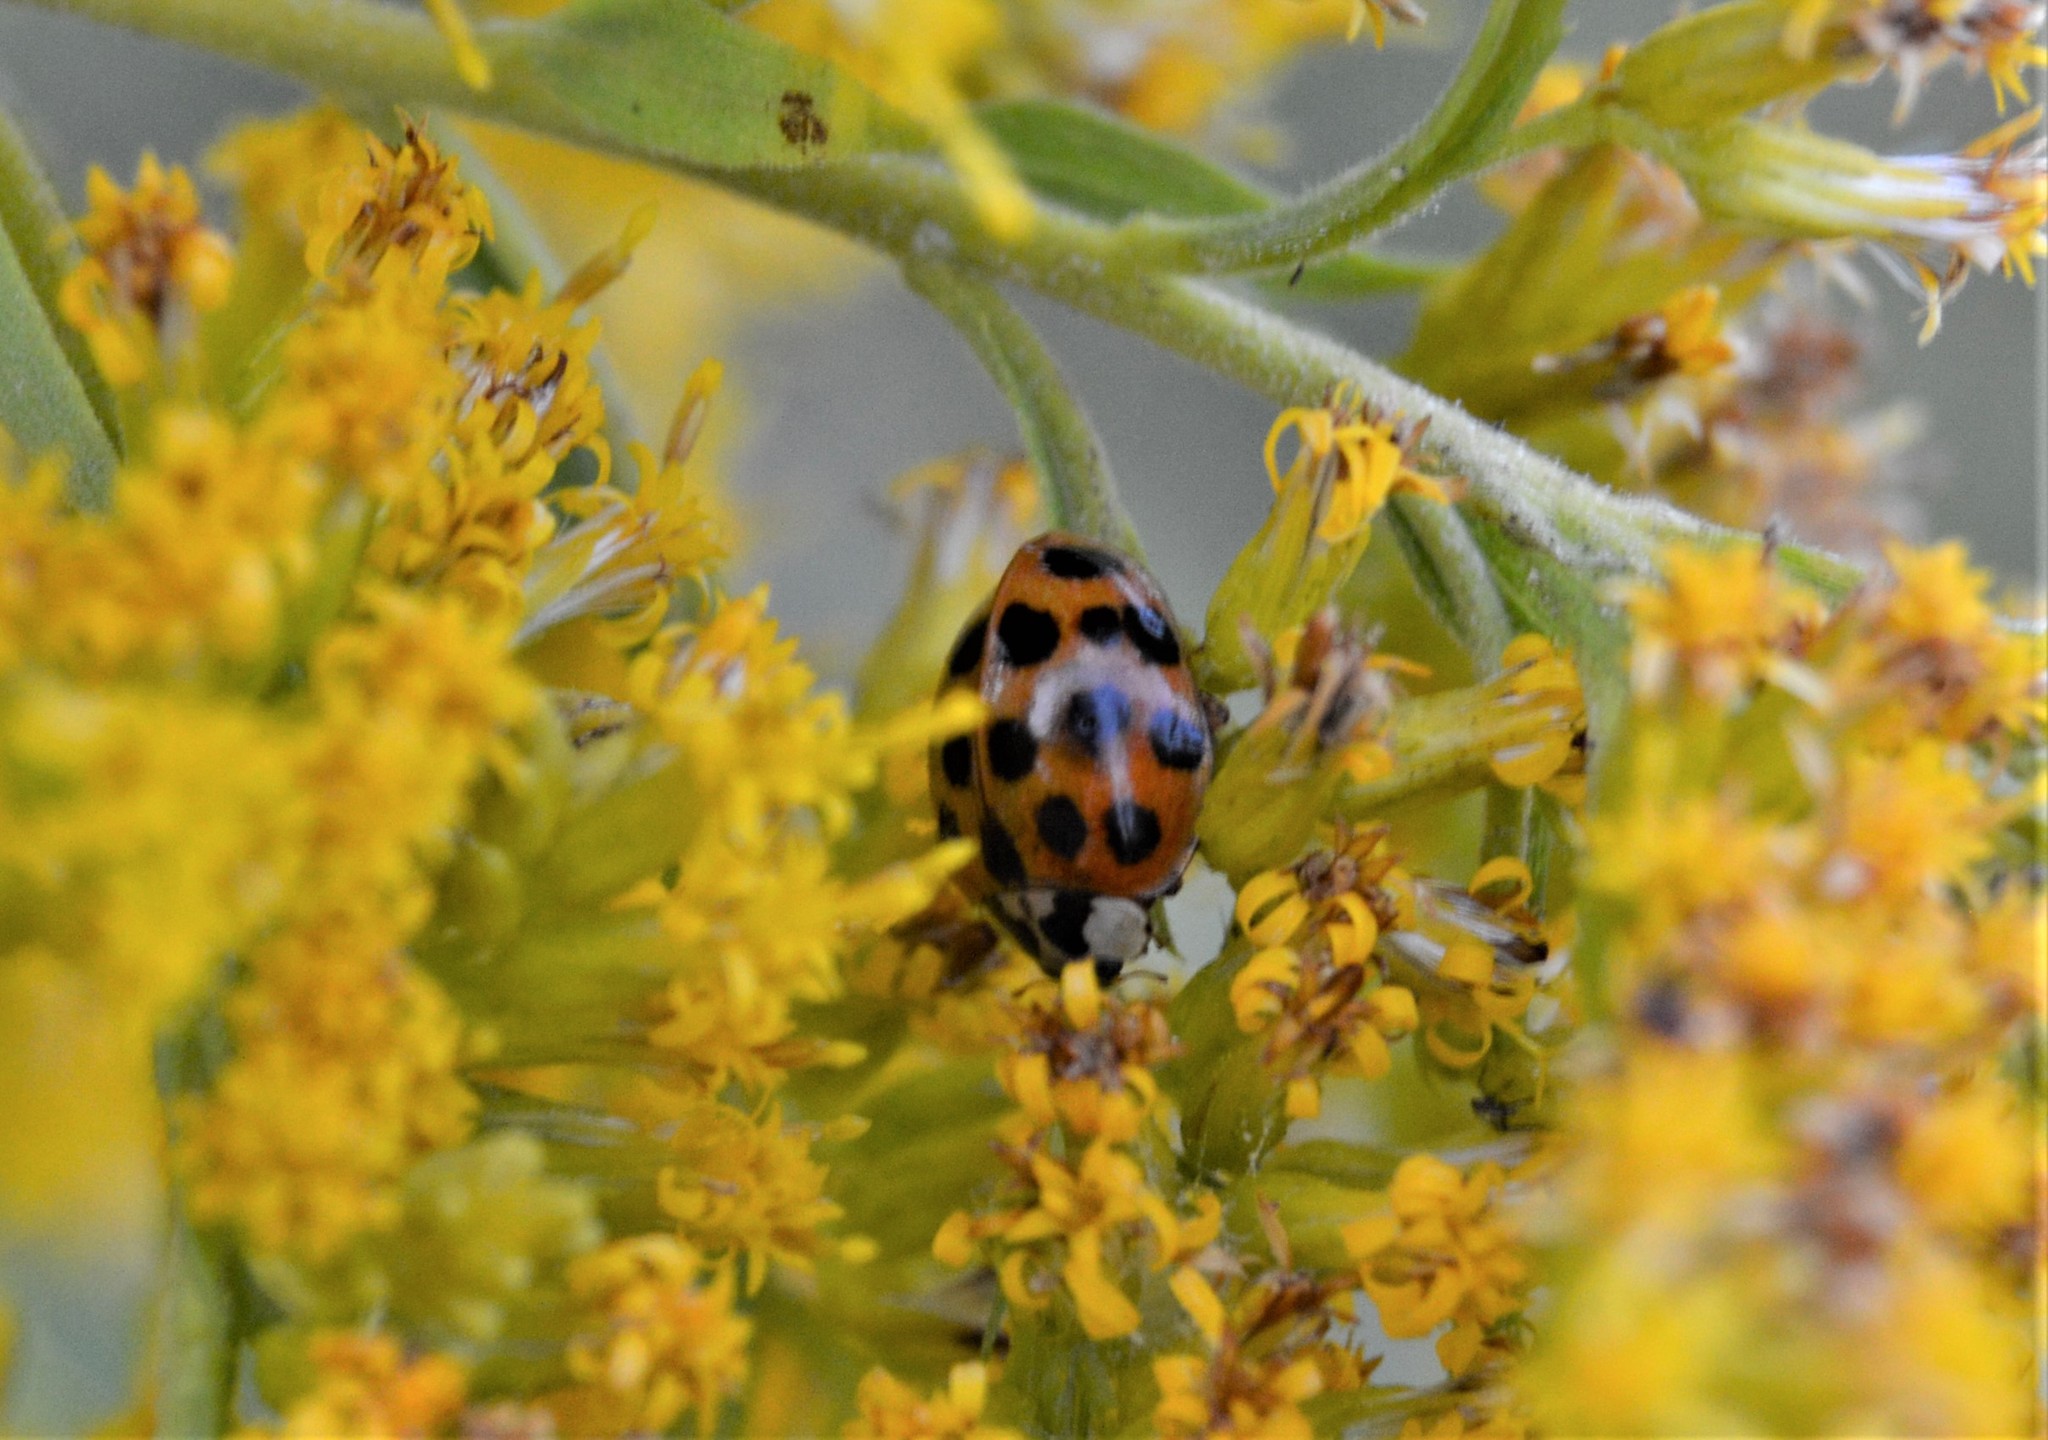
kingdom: Animalia
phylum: Arthropoda
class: Insecta
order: Coleoptera
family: Coccinellidae
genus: Harmonia
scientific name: Harmonia axyridis
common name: Harlequin ladybird
